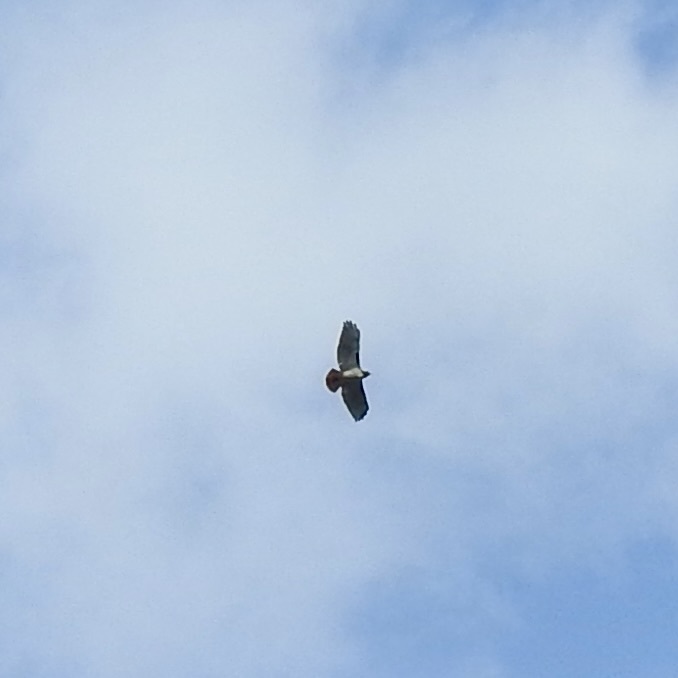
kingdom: Animalia
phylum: Chordata
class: Aves
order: Accipitriformes
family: Accipitridae
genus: Buteo
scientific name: Buteo jamaicensis
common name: Red-tailed hawk
